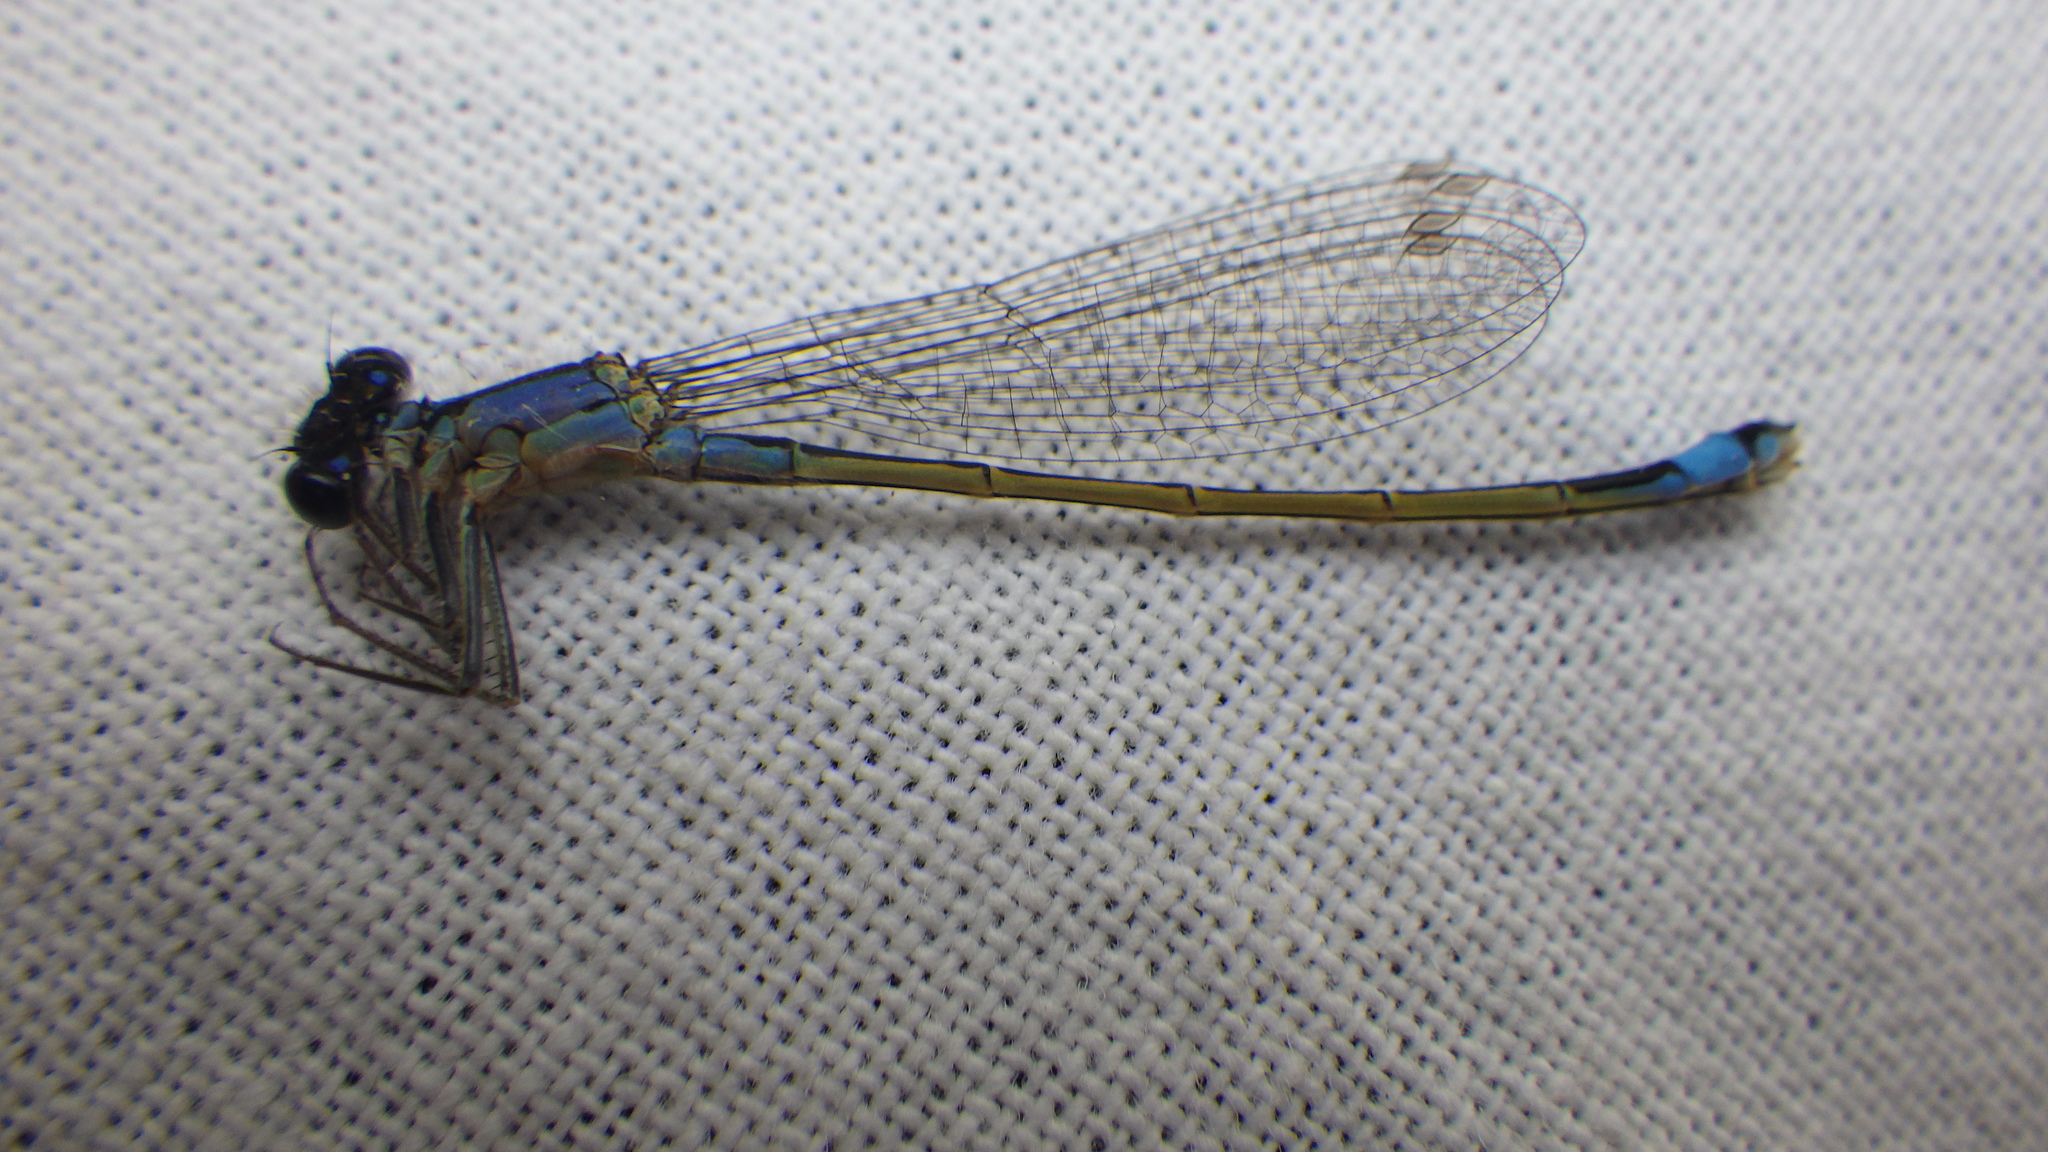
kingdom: Animalia
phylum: Arthropoda
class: Insecta
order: Odonata
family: Coenagrionidae
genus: Ischnura
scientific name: Ischnura elegans
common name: Blue-tailed damselfly
